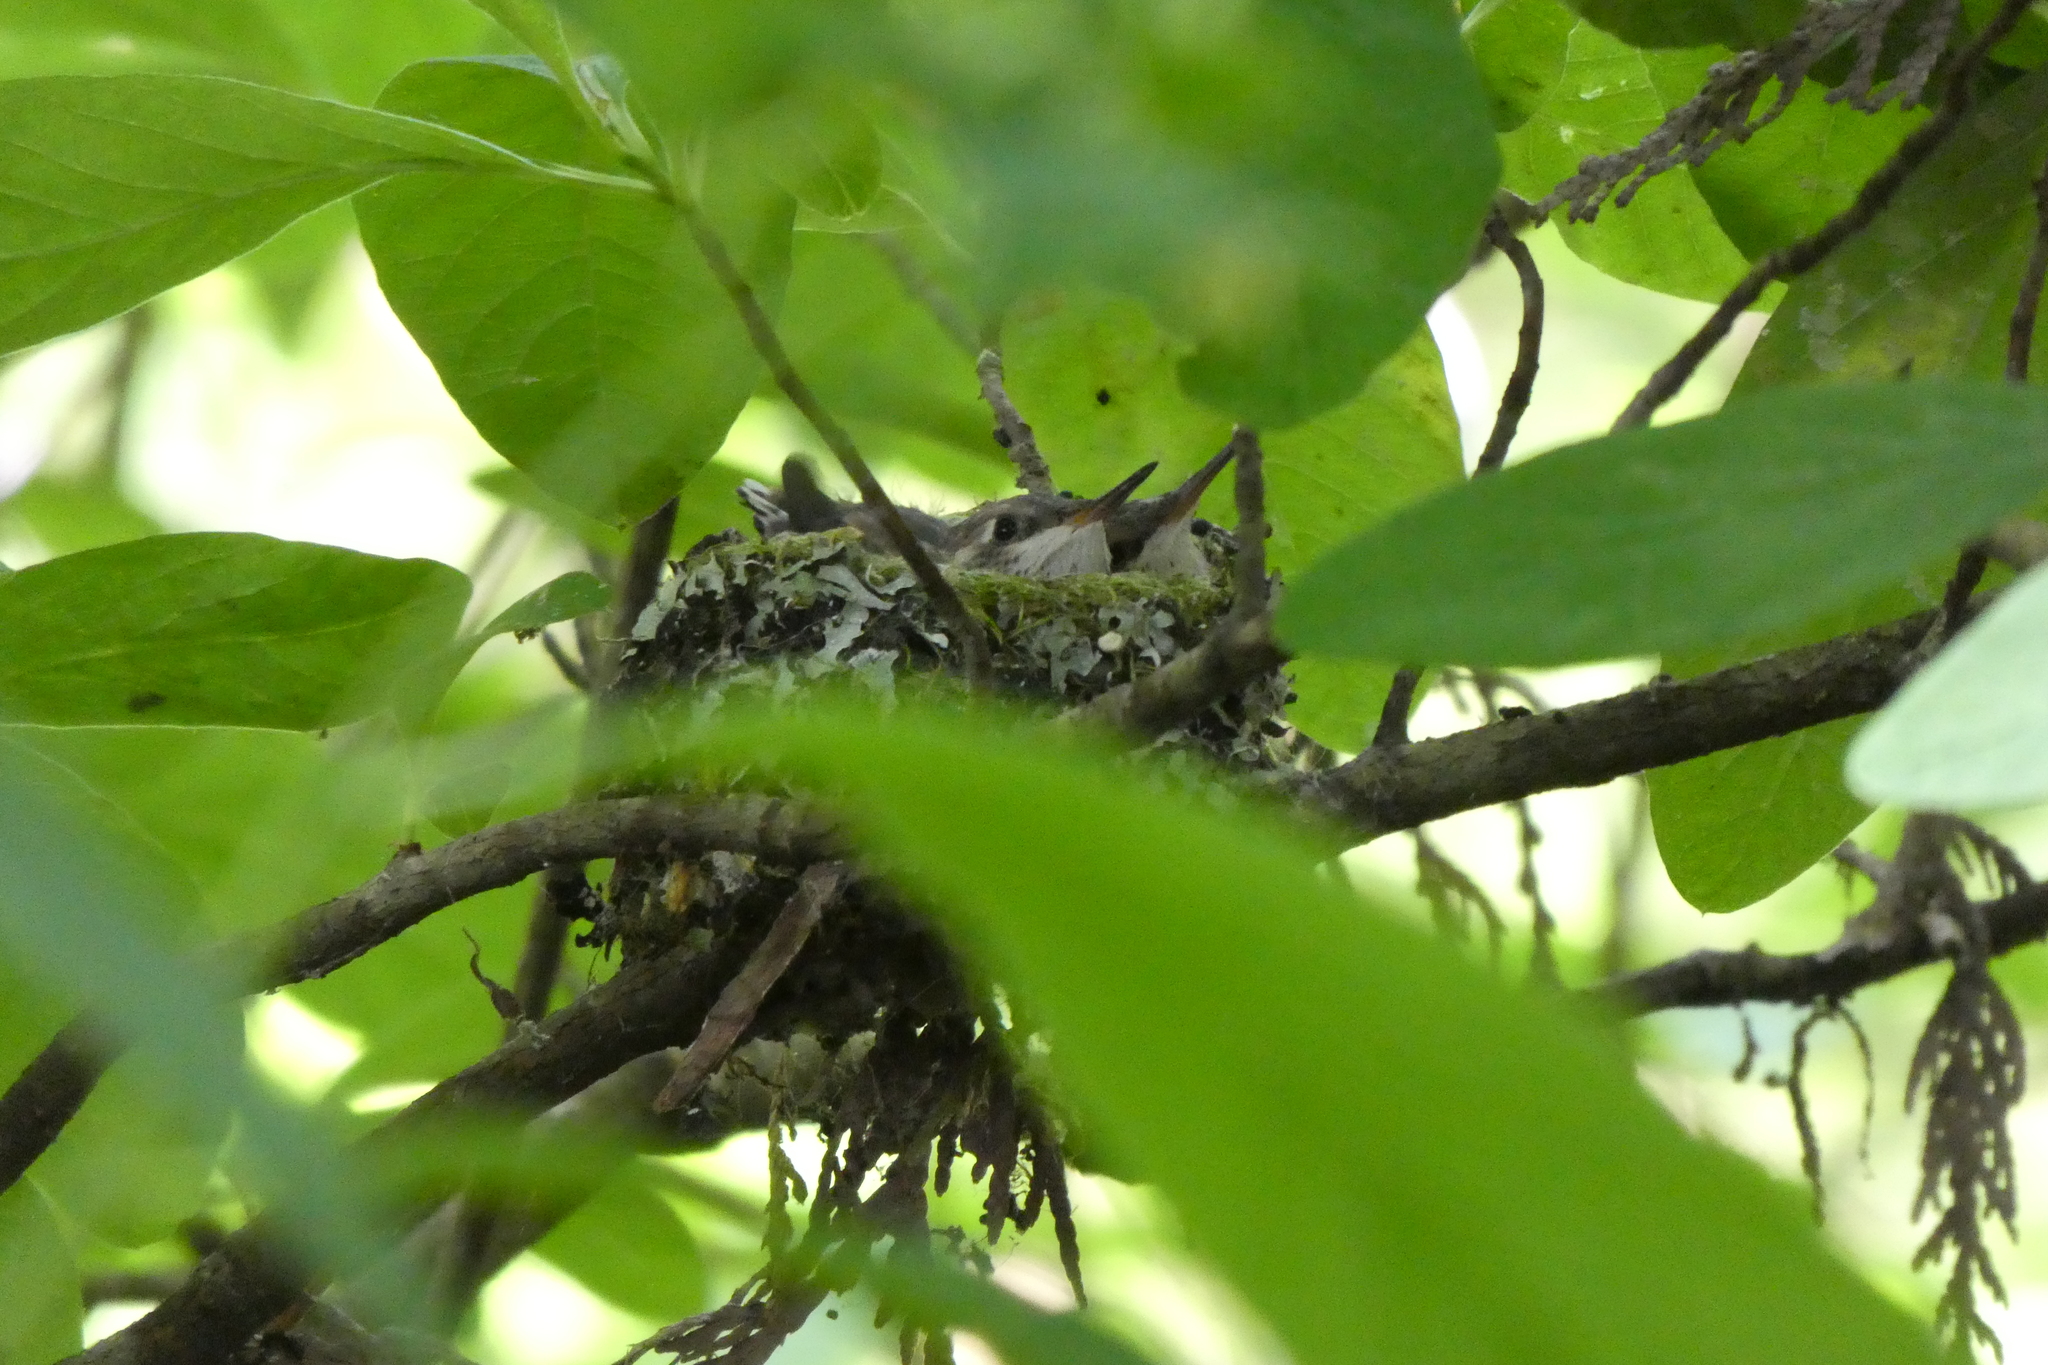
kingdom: Animalia
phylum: Chordata
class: Aves
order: Apodiformes
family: Trochilidae
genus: Selasphorus
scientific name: Selasphorus rufus
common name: Rufous hummingbird
